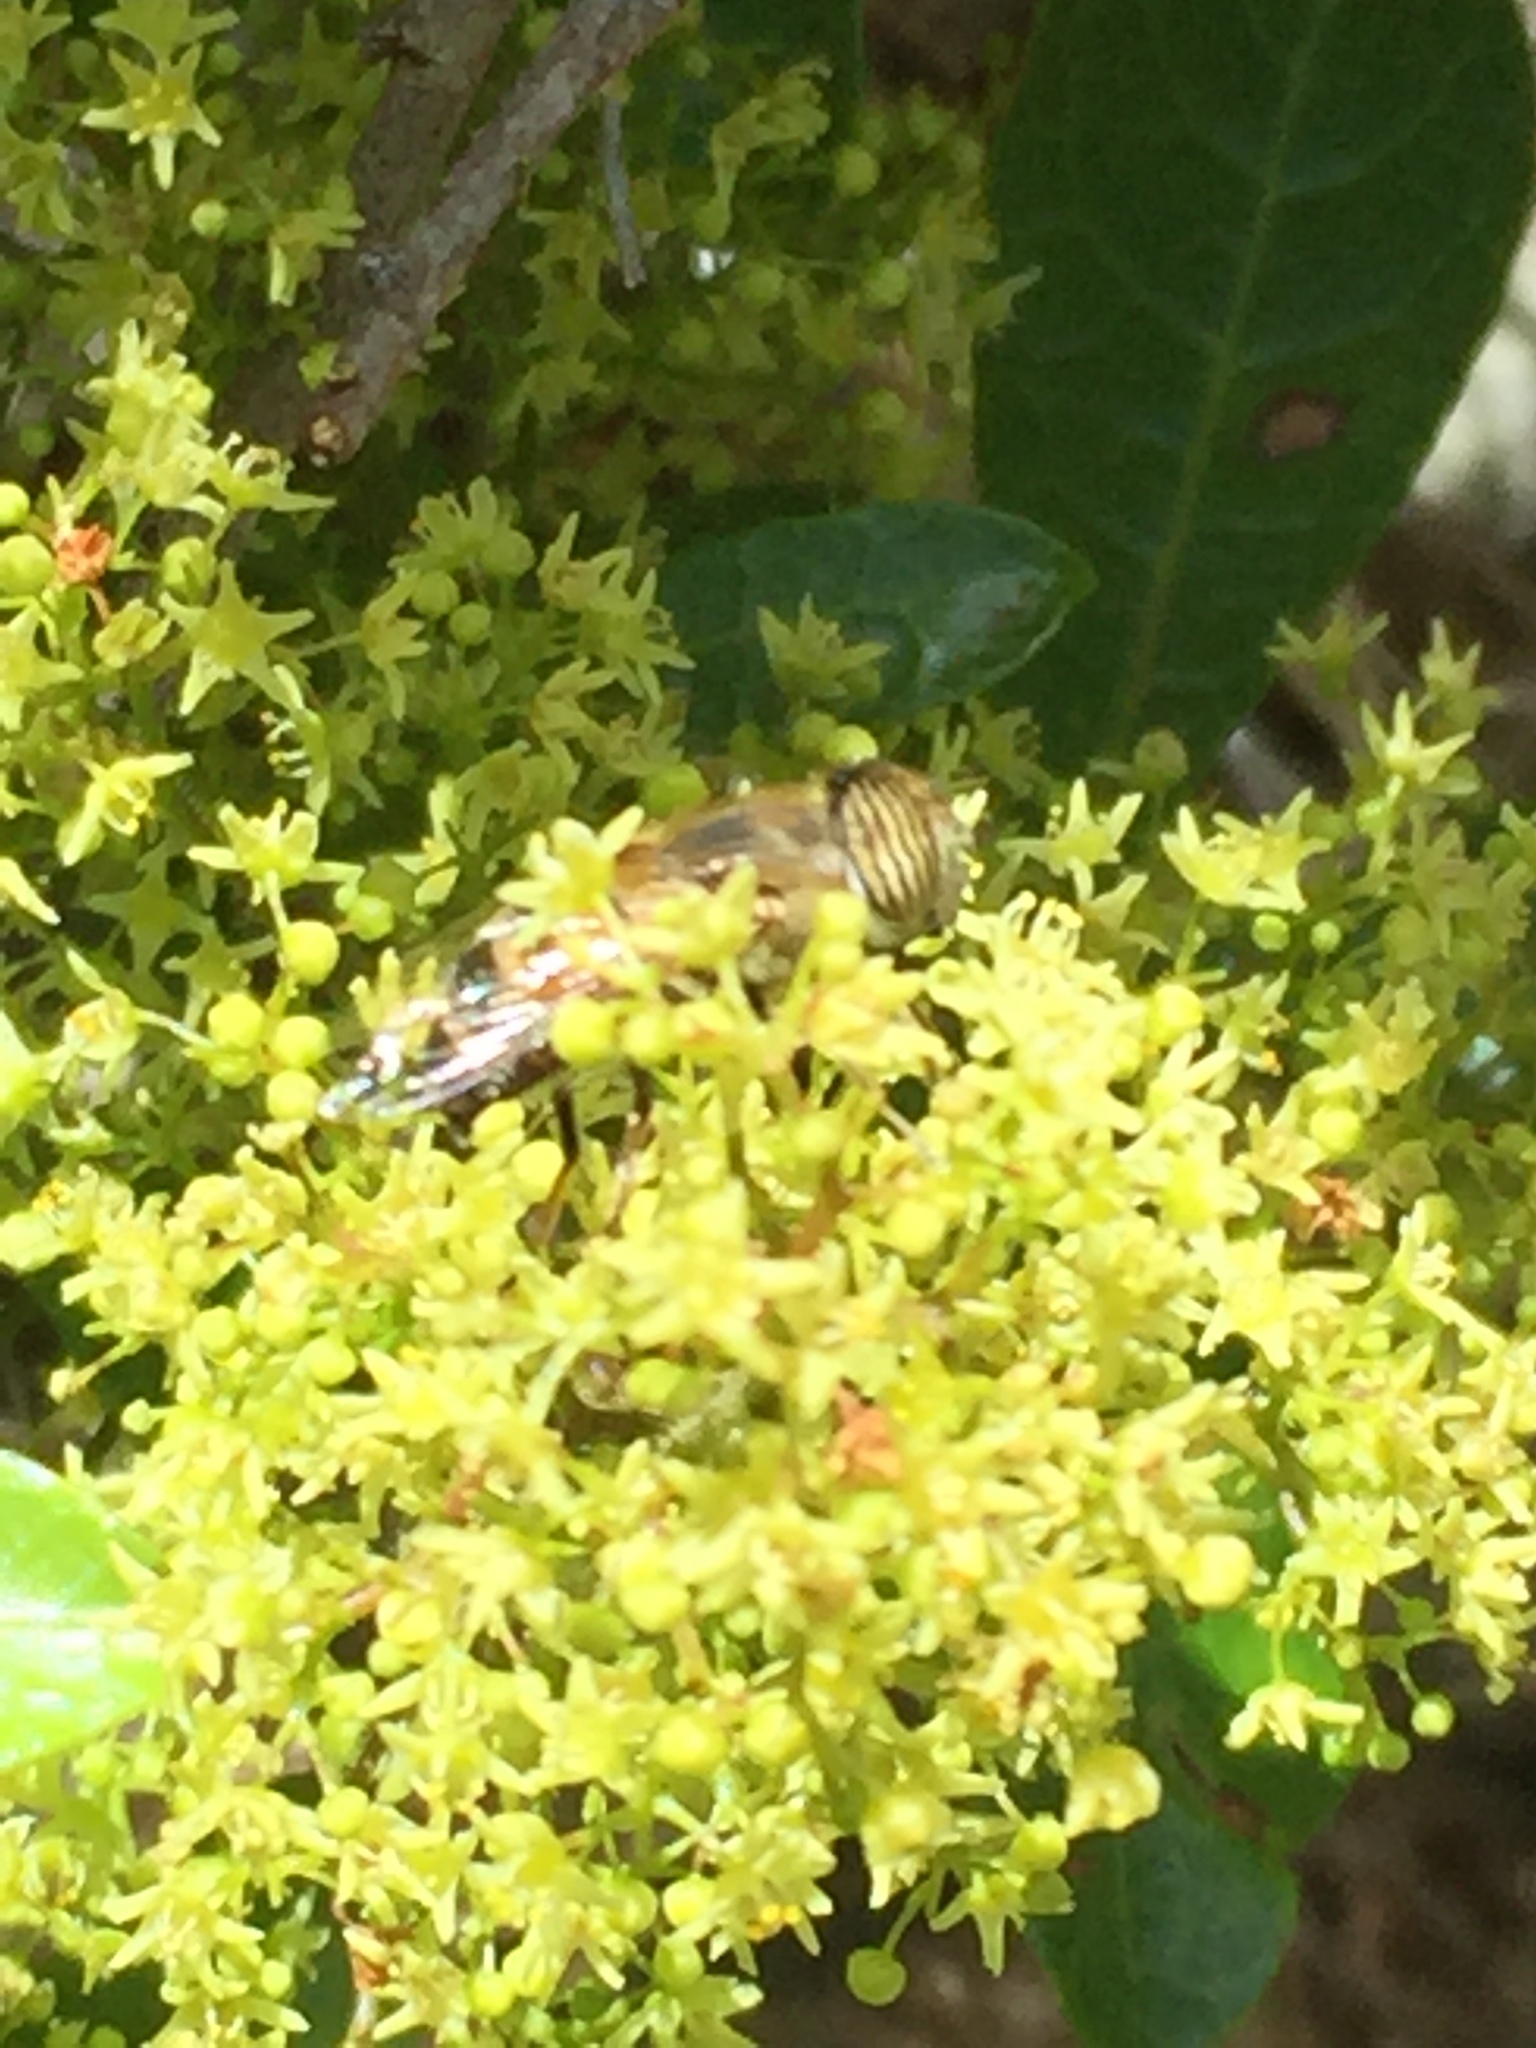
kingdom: Animalia
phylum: Arthropoda
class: Insecta
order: Diptera
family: Syrphidae
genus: Eristalinus
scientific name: Eristalinus taeniops
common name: Syrphid fly
